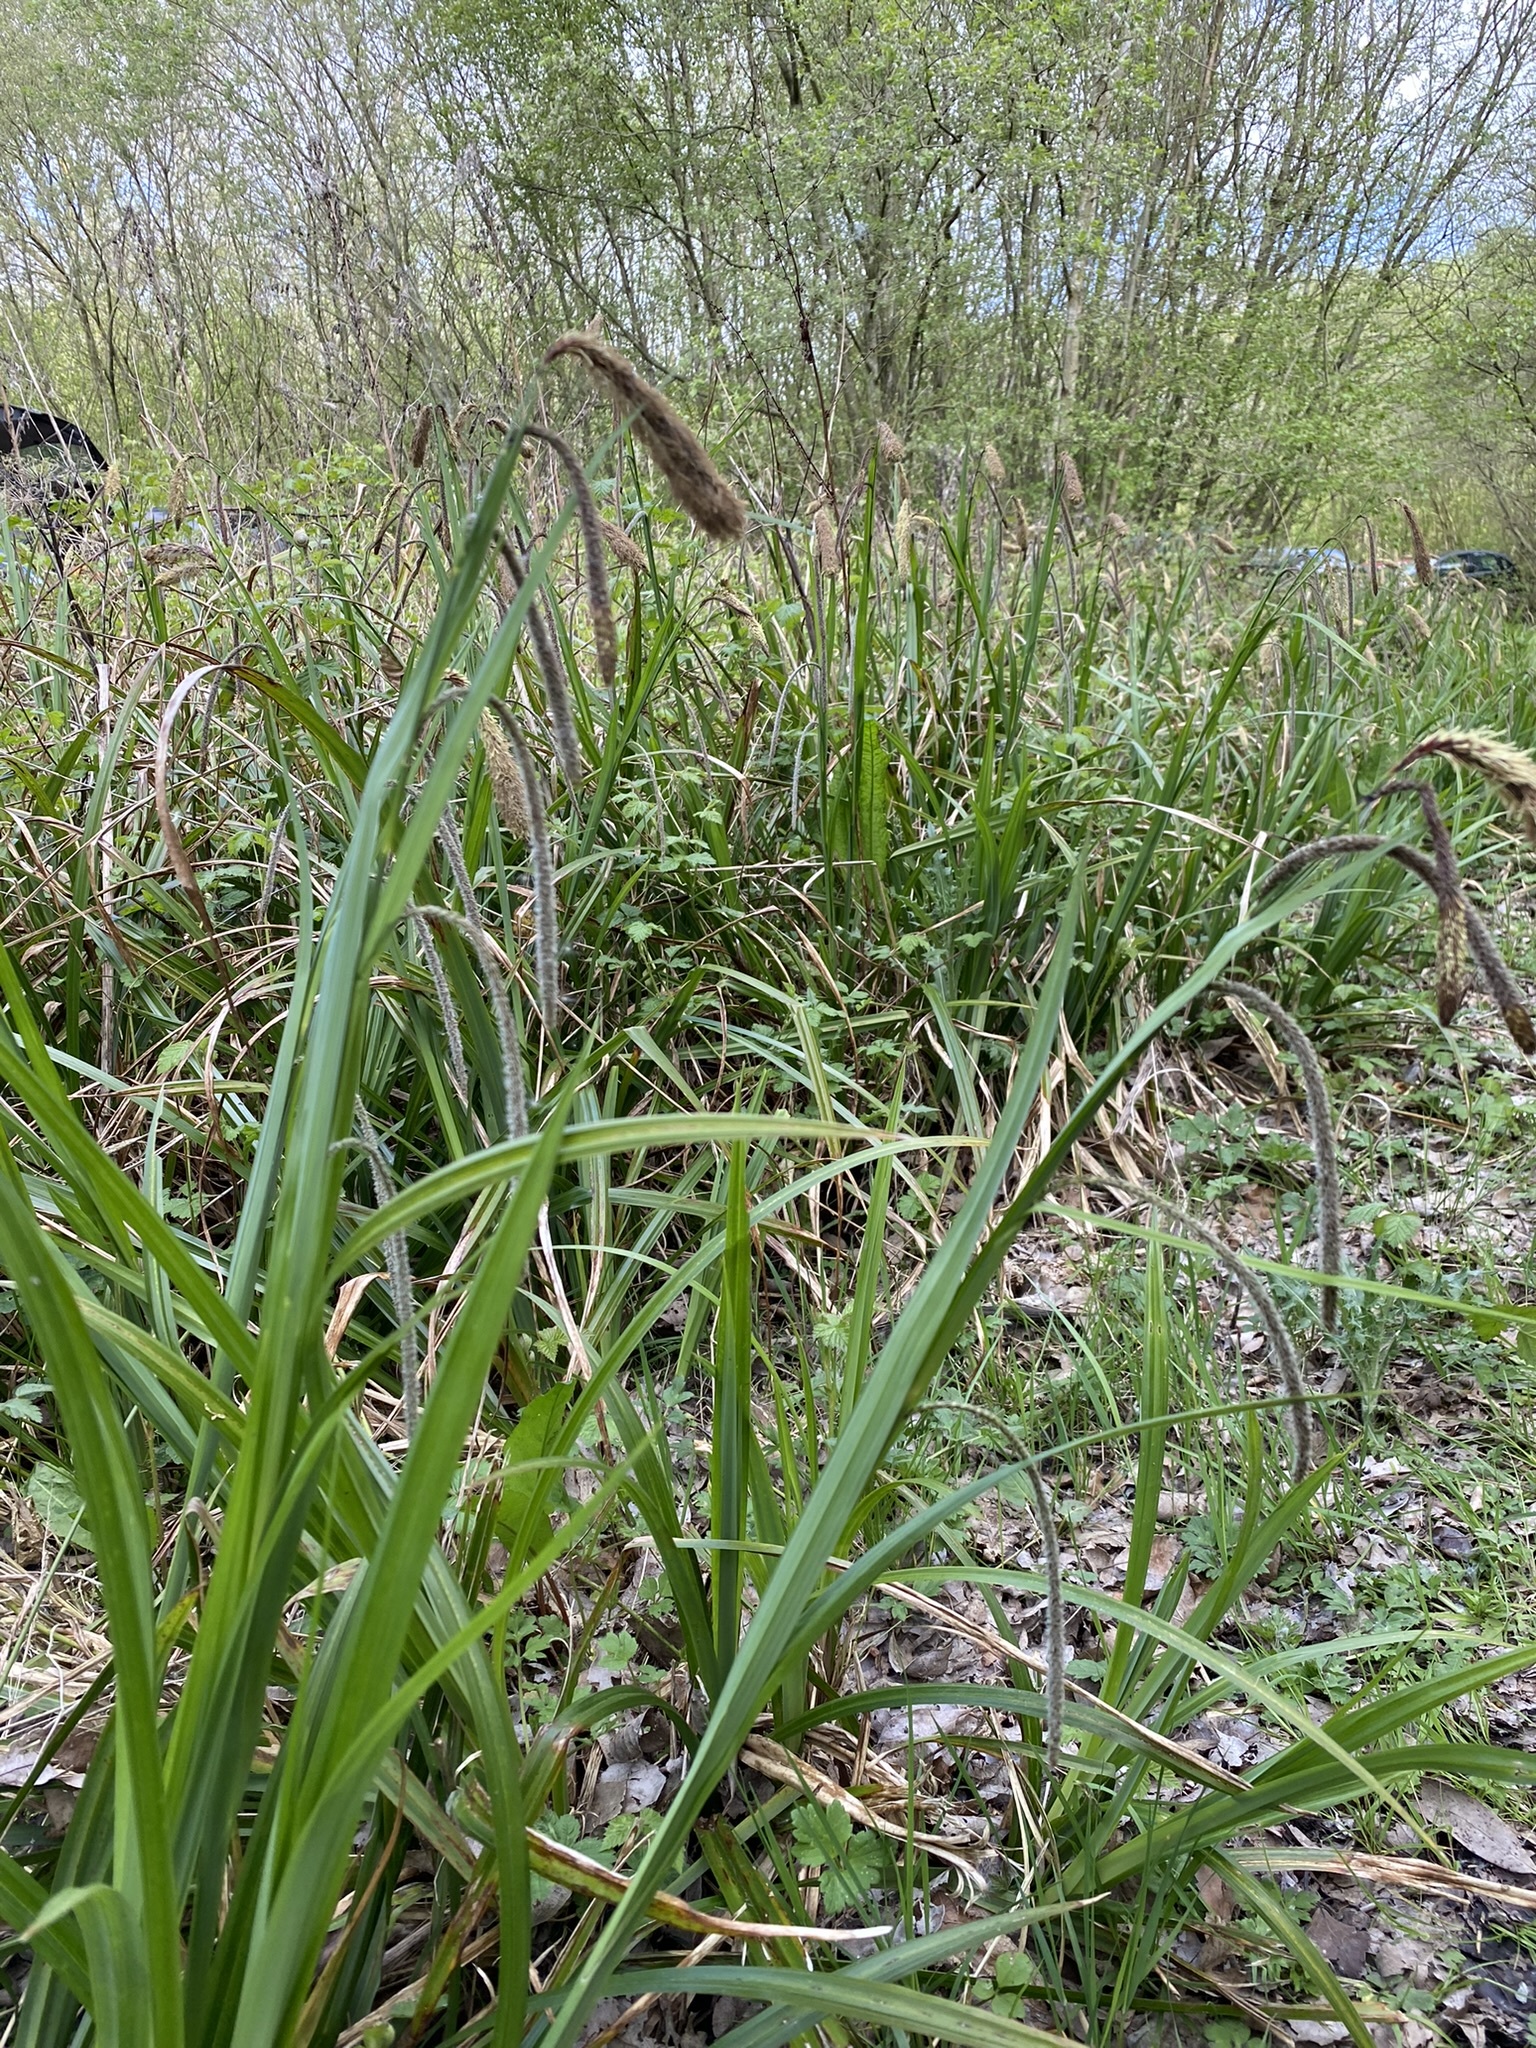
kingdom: Plantae
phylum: Tracheophyta
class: Liliopsida
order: Poales
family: Cyperaceae
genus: Carex
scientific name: Carex pendula
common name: Pendulous sedge
